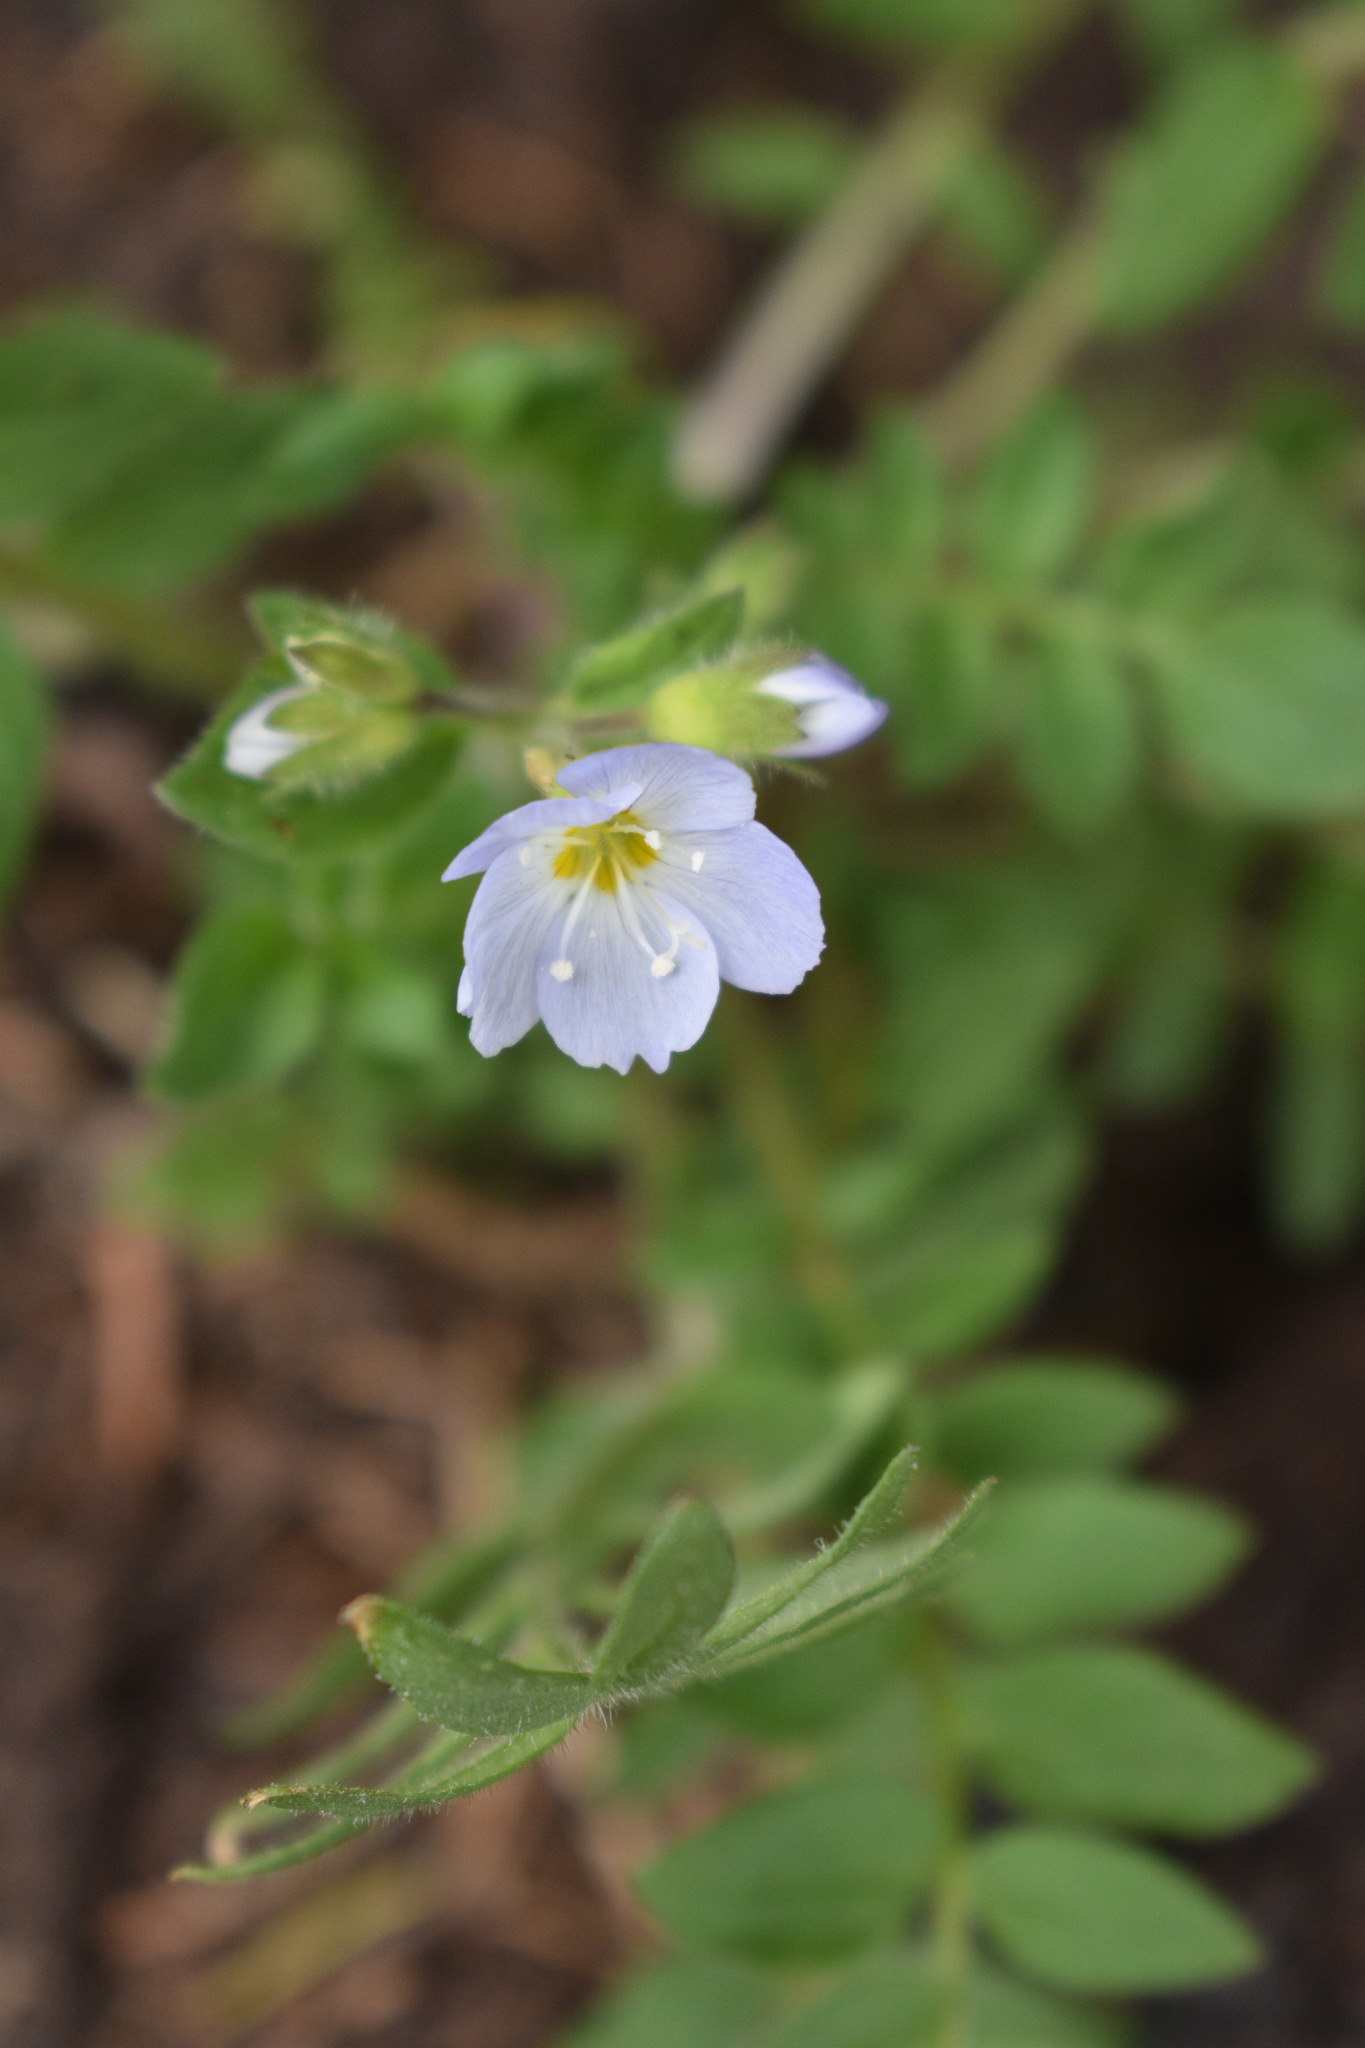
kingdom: Plantae
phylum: Tracheophyta
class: Magnoliopsida
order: Ericales
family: Polemoniaceae
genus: Polemonium
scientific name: Polemonium pulcherrimum
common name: Short jacob's-ladder
